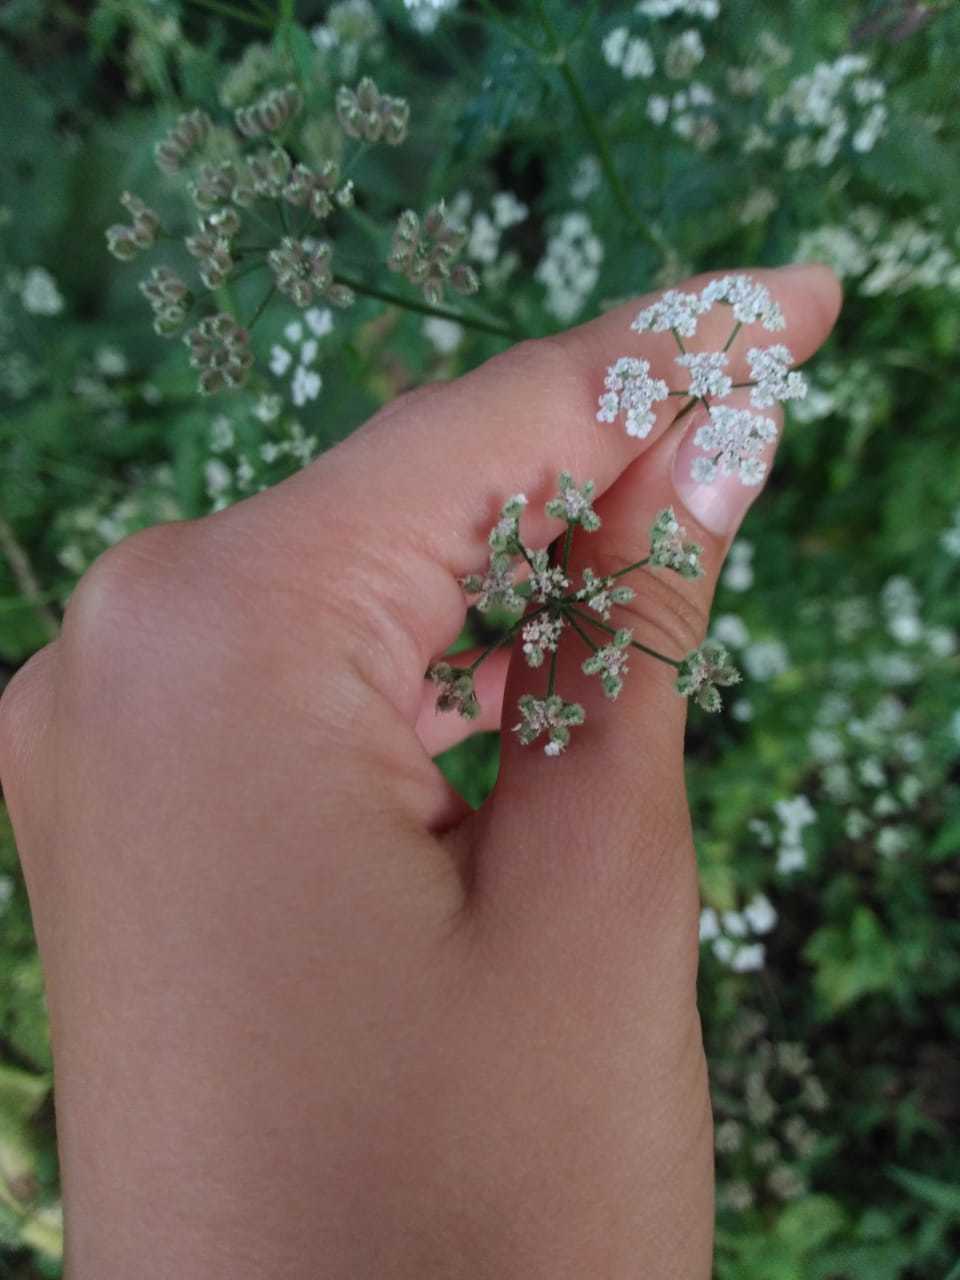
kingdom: Plantae
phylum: Tracheophyta
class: Magnoliopsida
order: Apiales
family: Apiaceae
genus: Torilis
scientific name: Torilis japonica
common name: Upright hedge-parsley
